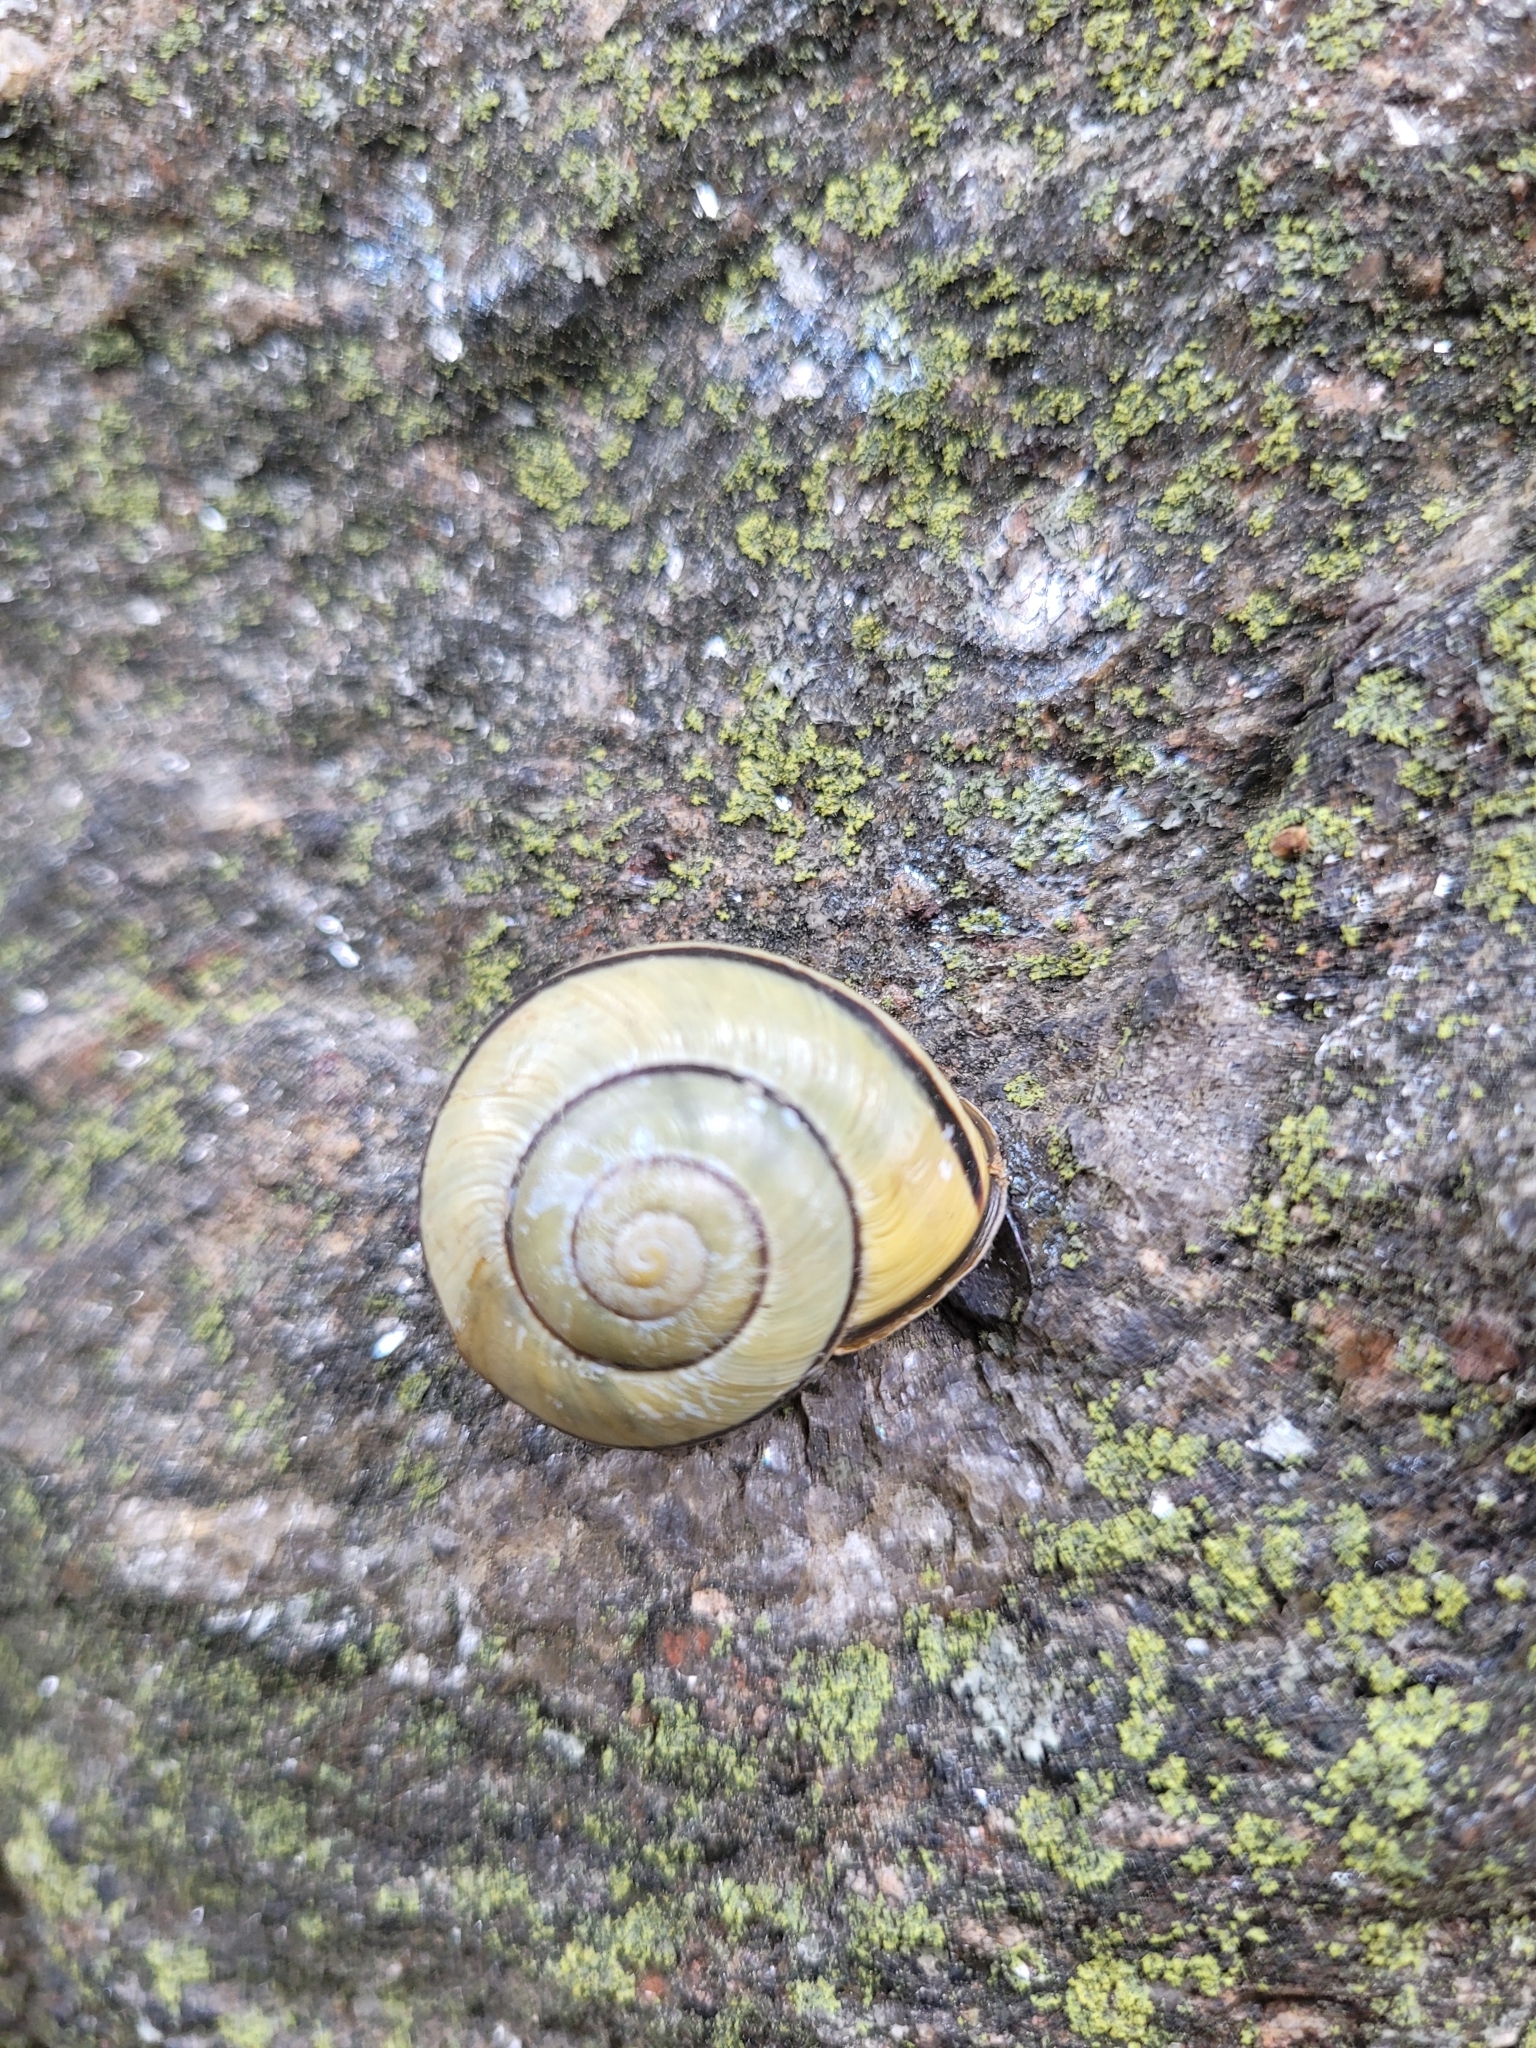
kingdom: Animalia
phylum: Mollusca
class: Gastropoda
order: Stylommatophora
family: Helicidae
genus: Cepaea
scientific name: Cepaea nemoralis
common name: Grovesnail
